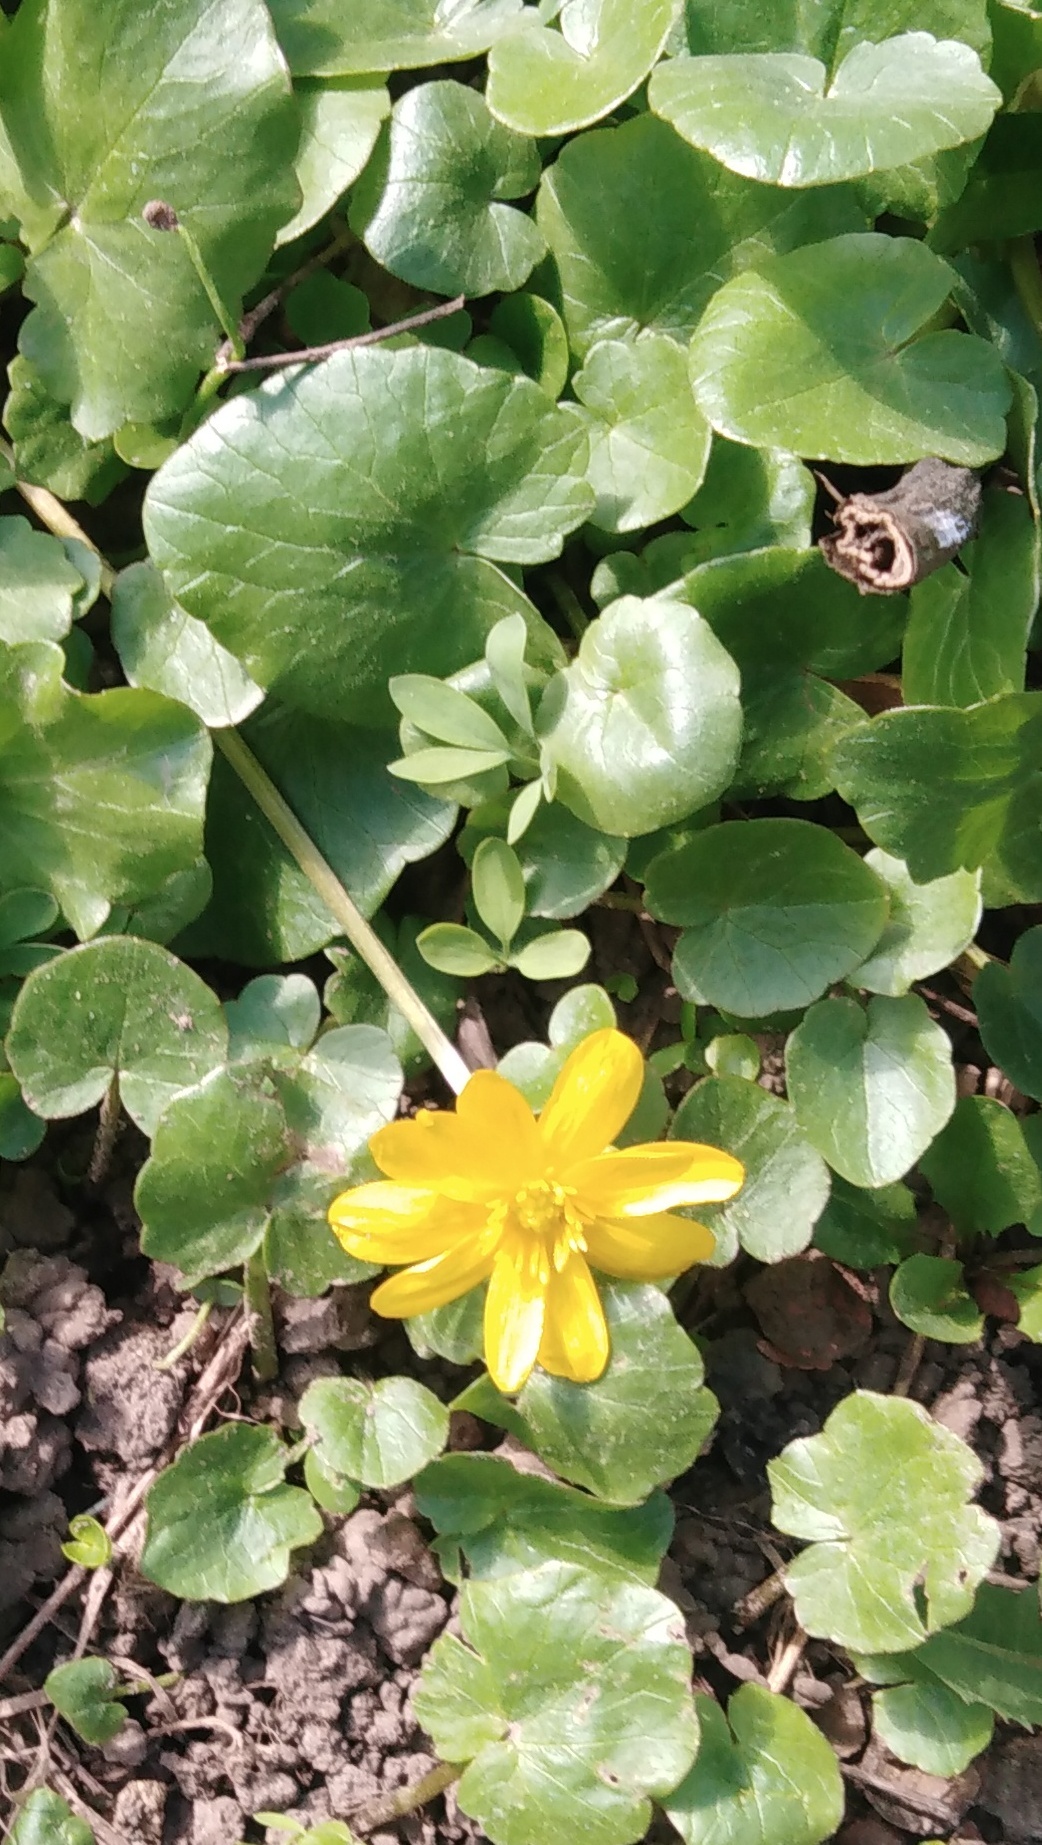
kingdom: Plantae
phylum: Tracheophyta
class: Magnoliopsida
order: Ranunculales
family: Ranunculaceae
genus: Ficaria
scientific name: Ficaria verna
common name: Lesser celandine
